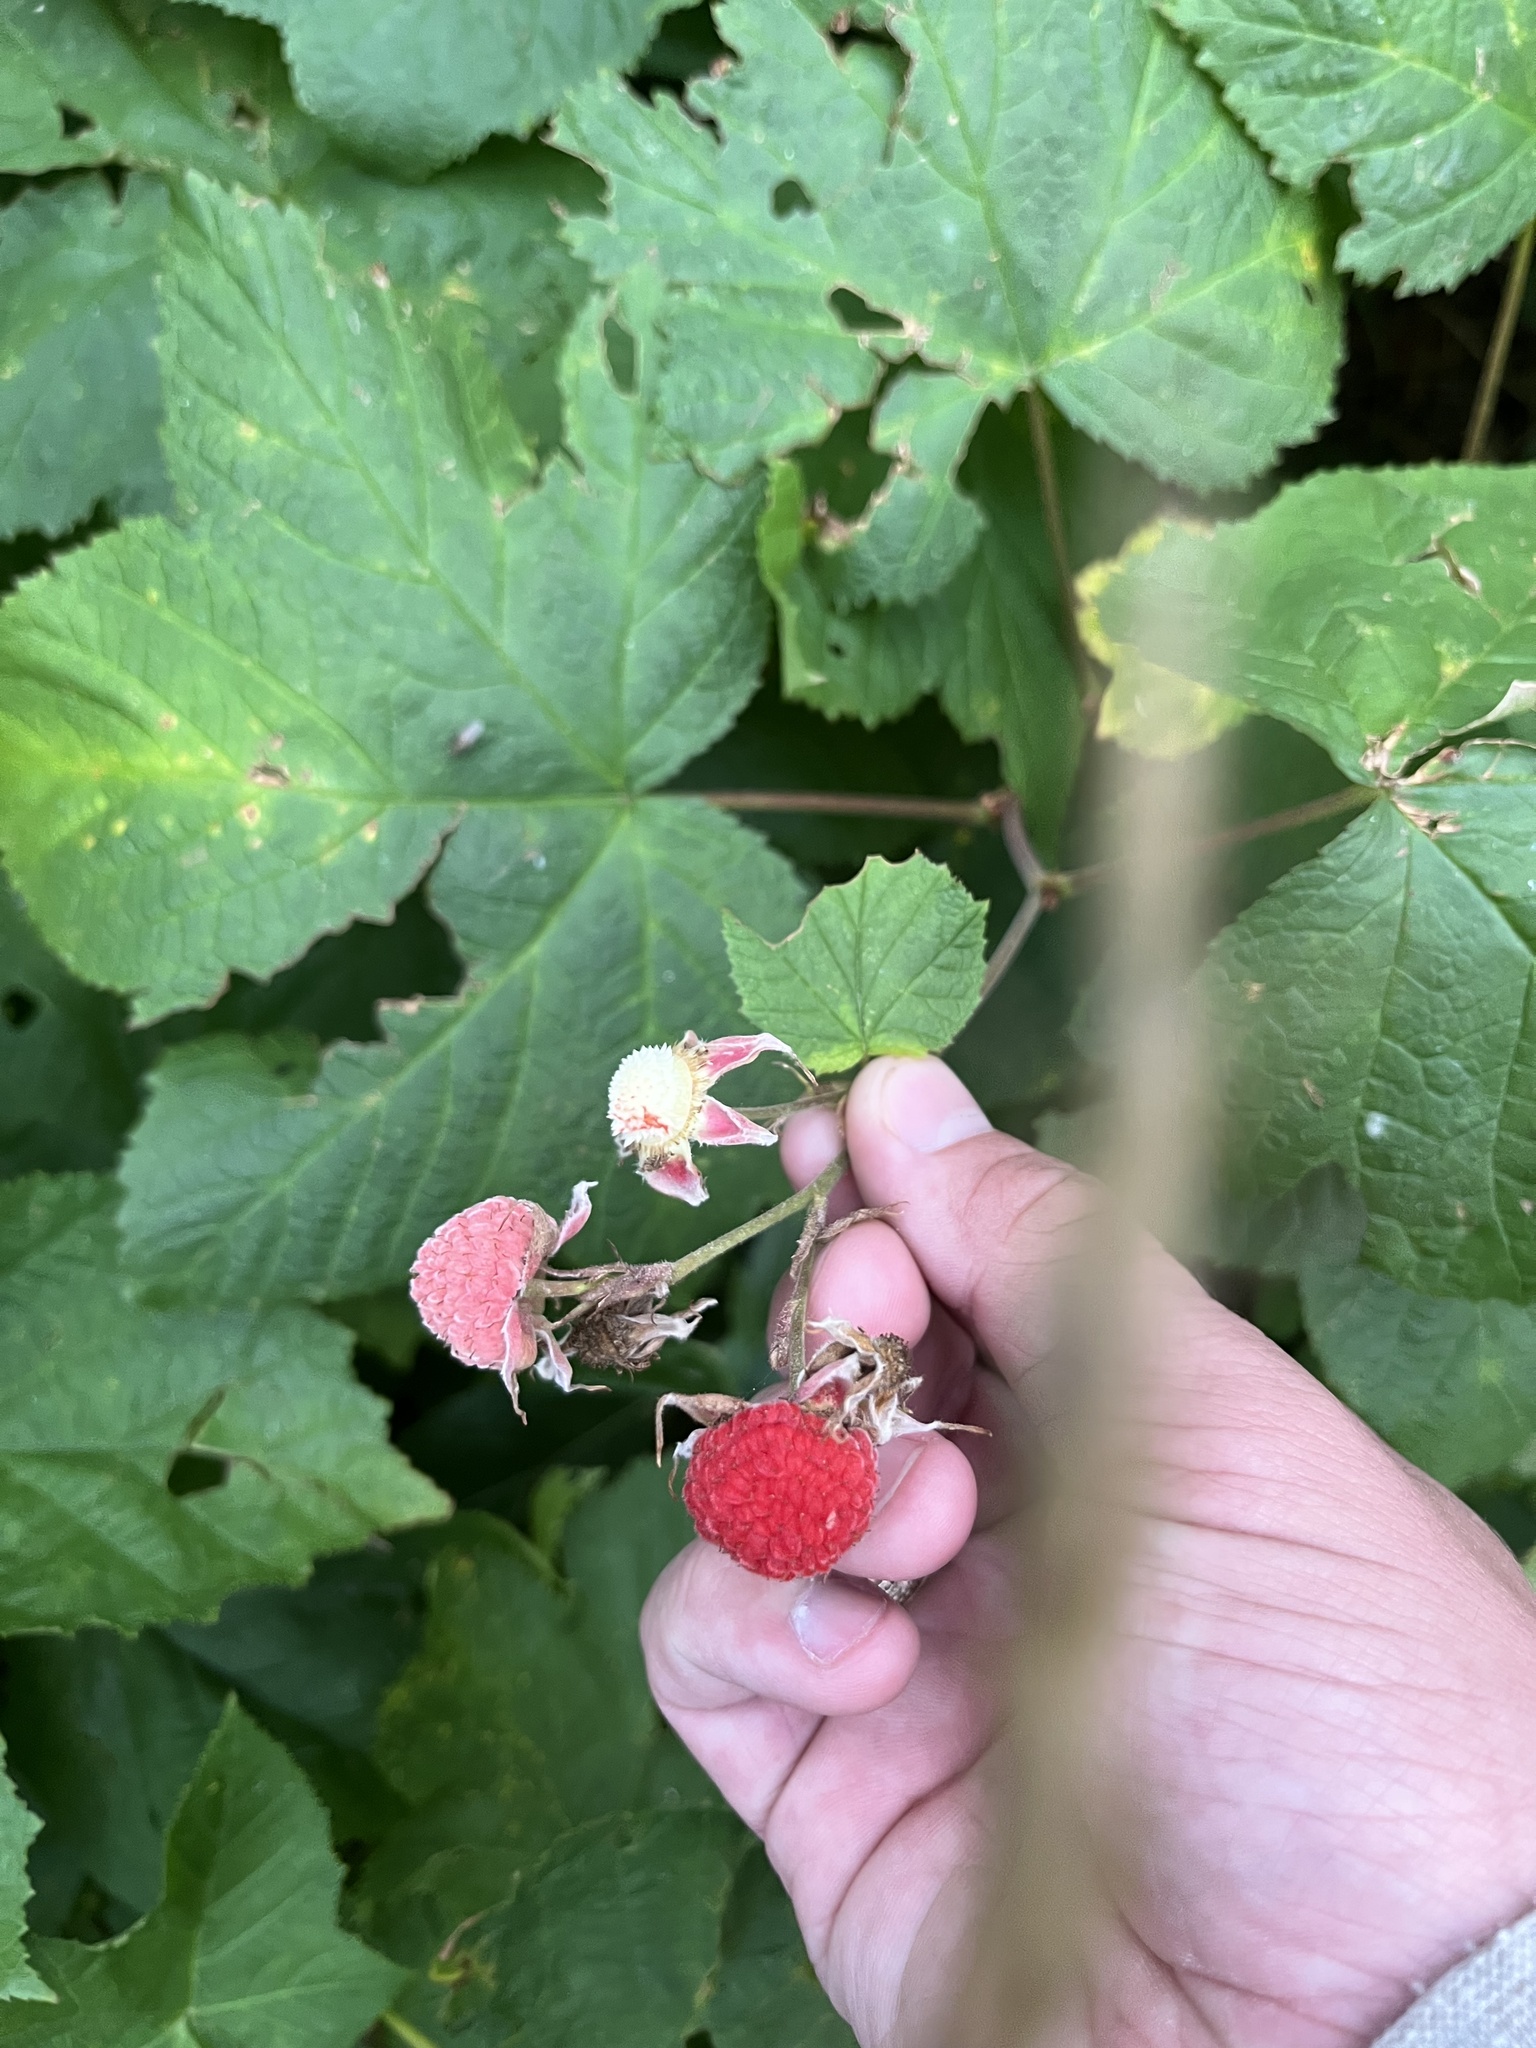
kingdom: Plantae
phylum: Tracheophyta
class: Magnoliopsida
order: Rosales
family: Rosaceae
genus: Rubus
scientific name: Rubus parviflorus
